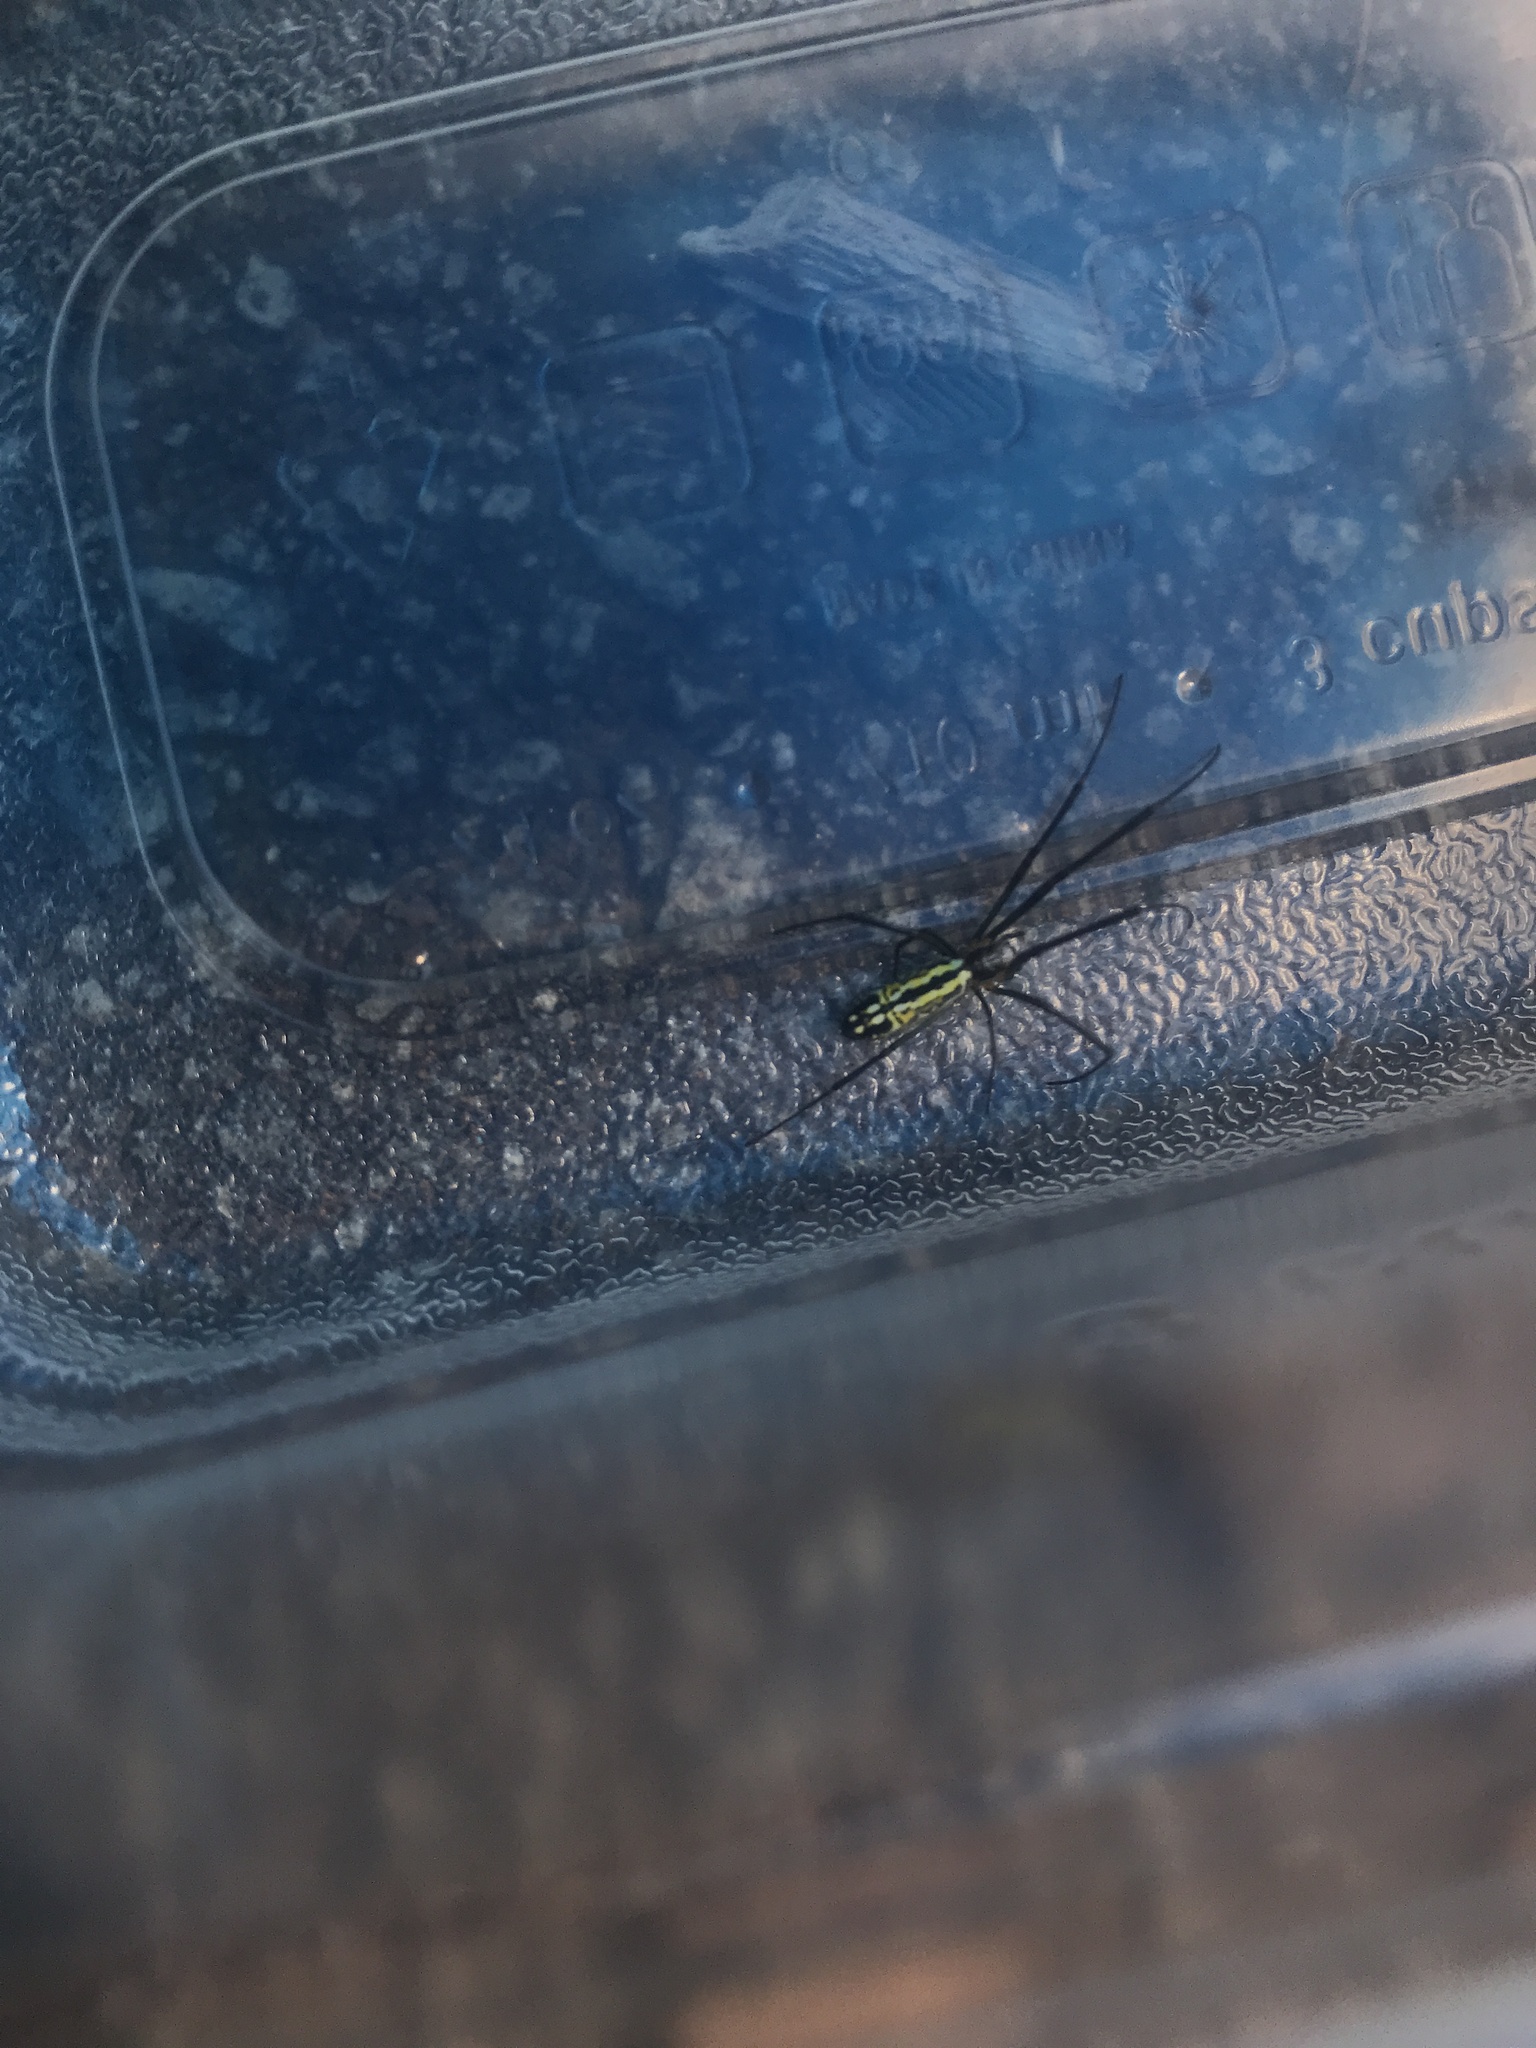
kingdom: Animalia
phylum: Arthropoda
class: Arachnida
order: Araneae
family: Araneidae
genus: Trichonephila
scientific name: Trichonephila clavata
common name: Jorō spider
